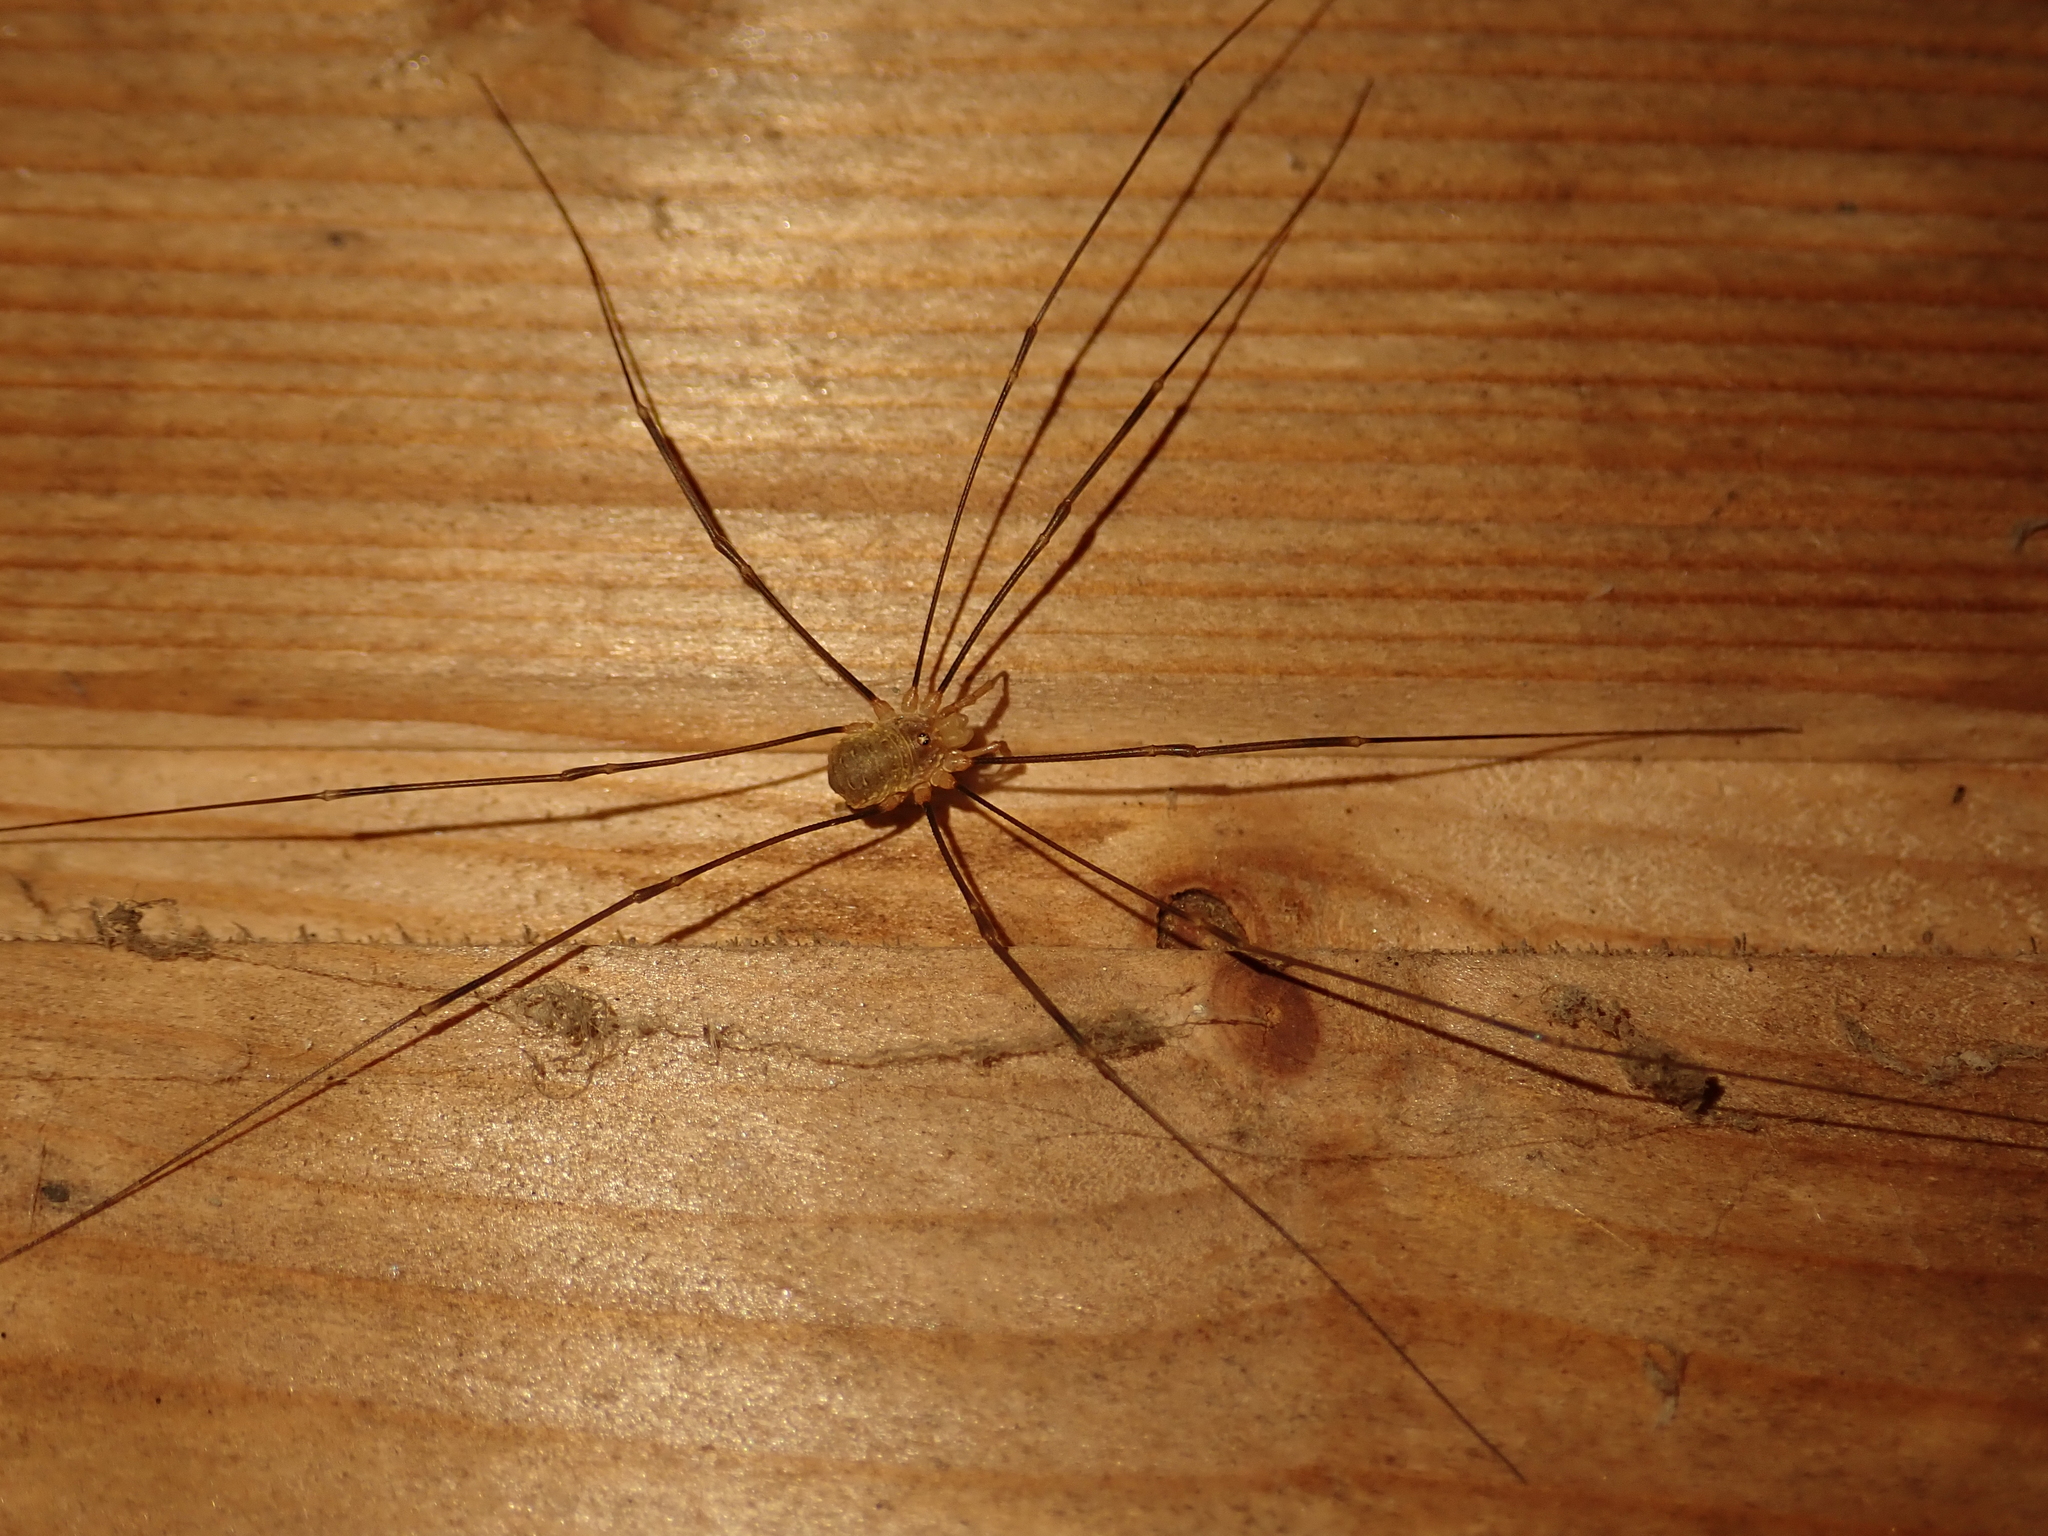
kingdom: Animalia
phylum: Arthropoda
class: Arachnida
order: Opiliones
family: Phalangiidae
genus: Opilio
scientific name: Opilio canestrinii
